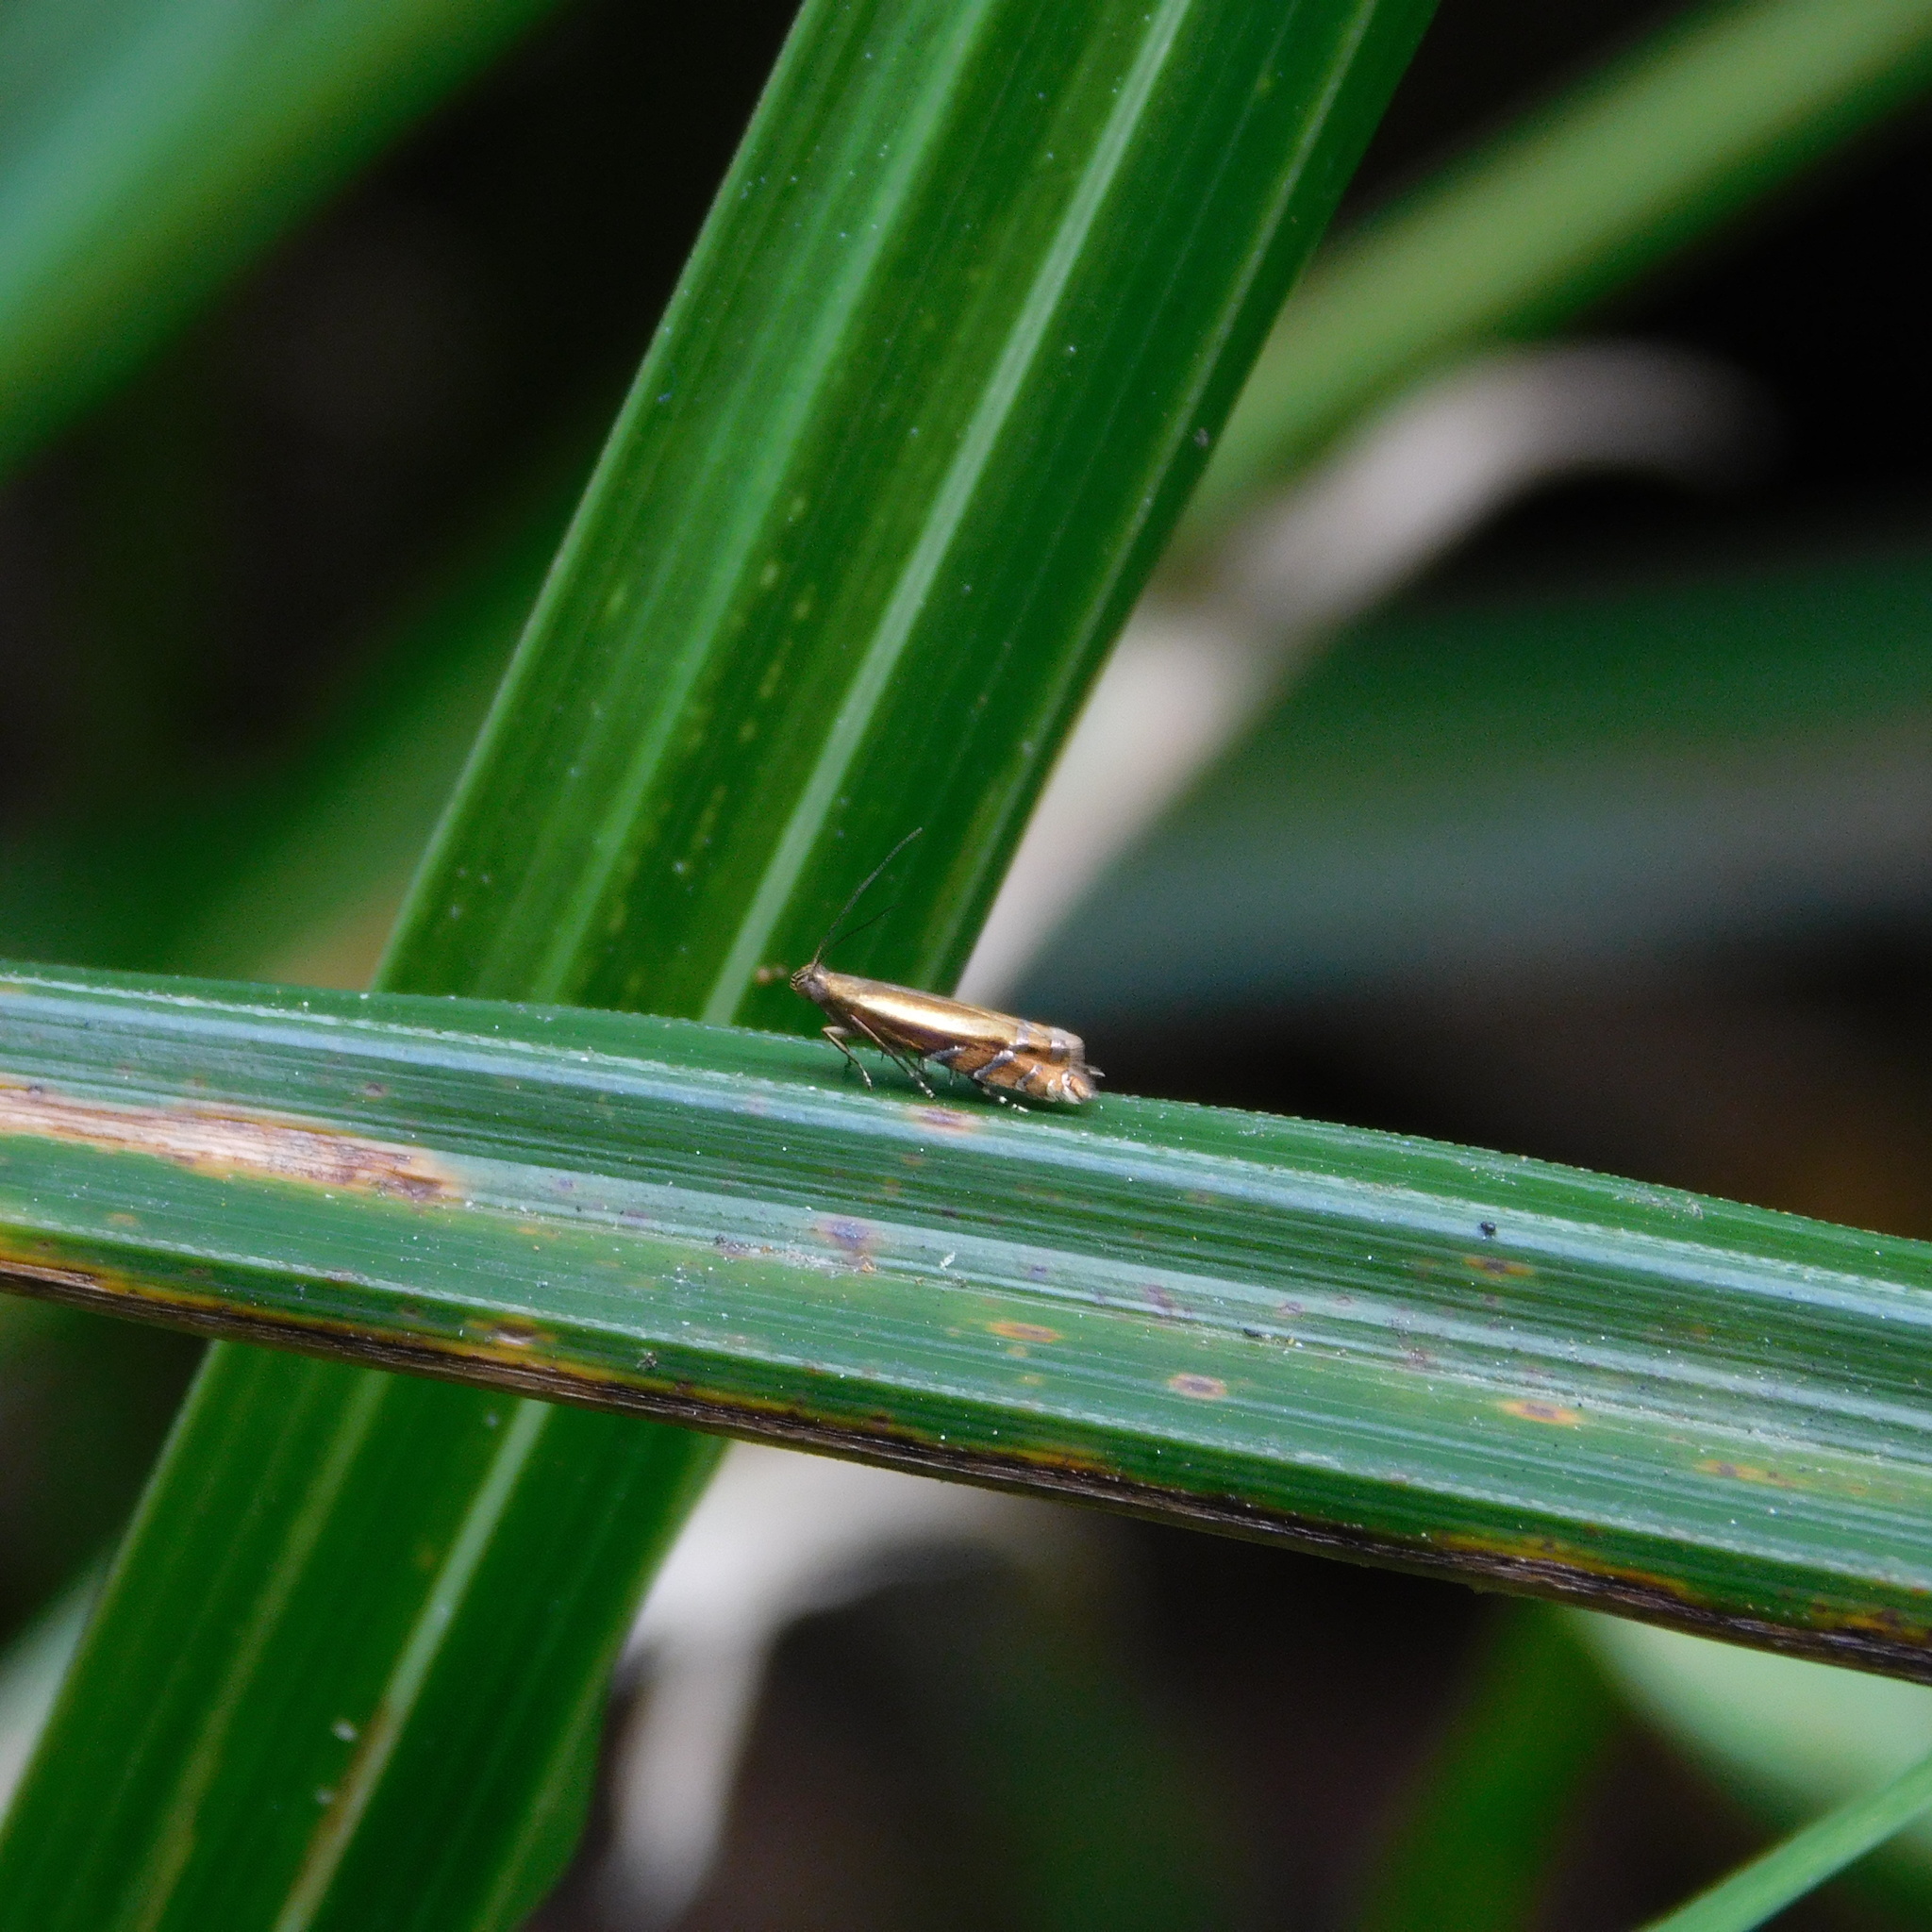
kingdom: Animalia
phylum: Arthropoda
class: Insecta
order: Lepidoptera
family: Glyphipterigidae
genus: Glyphipterix
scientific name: Glyphipterix scintilella
